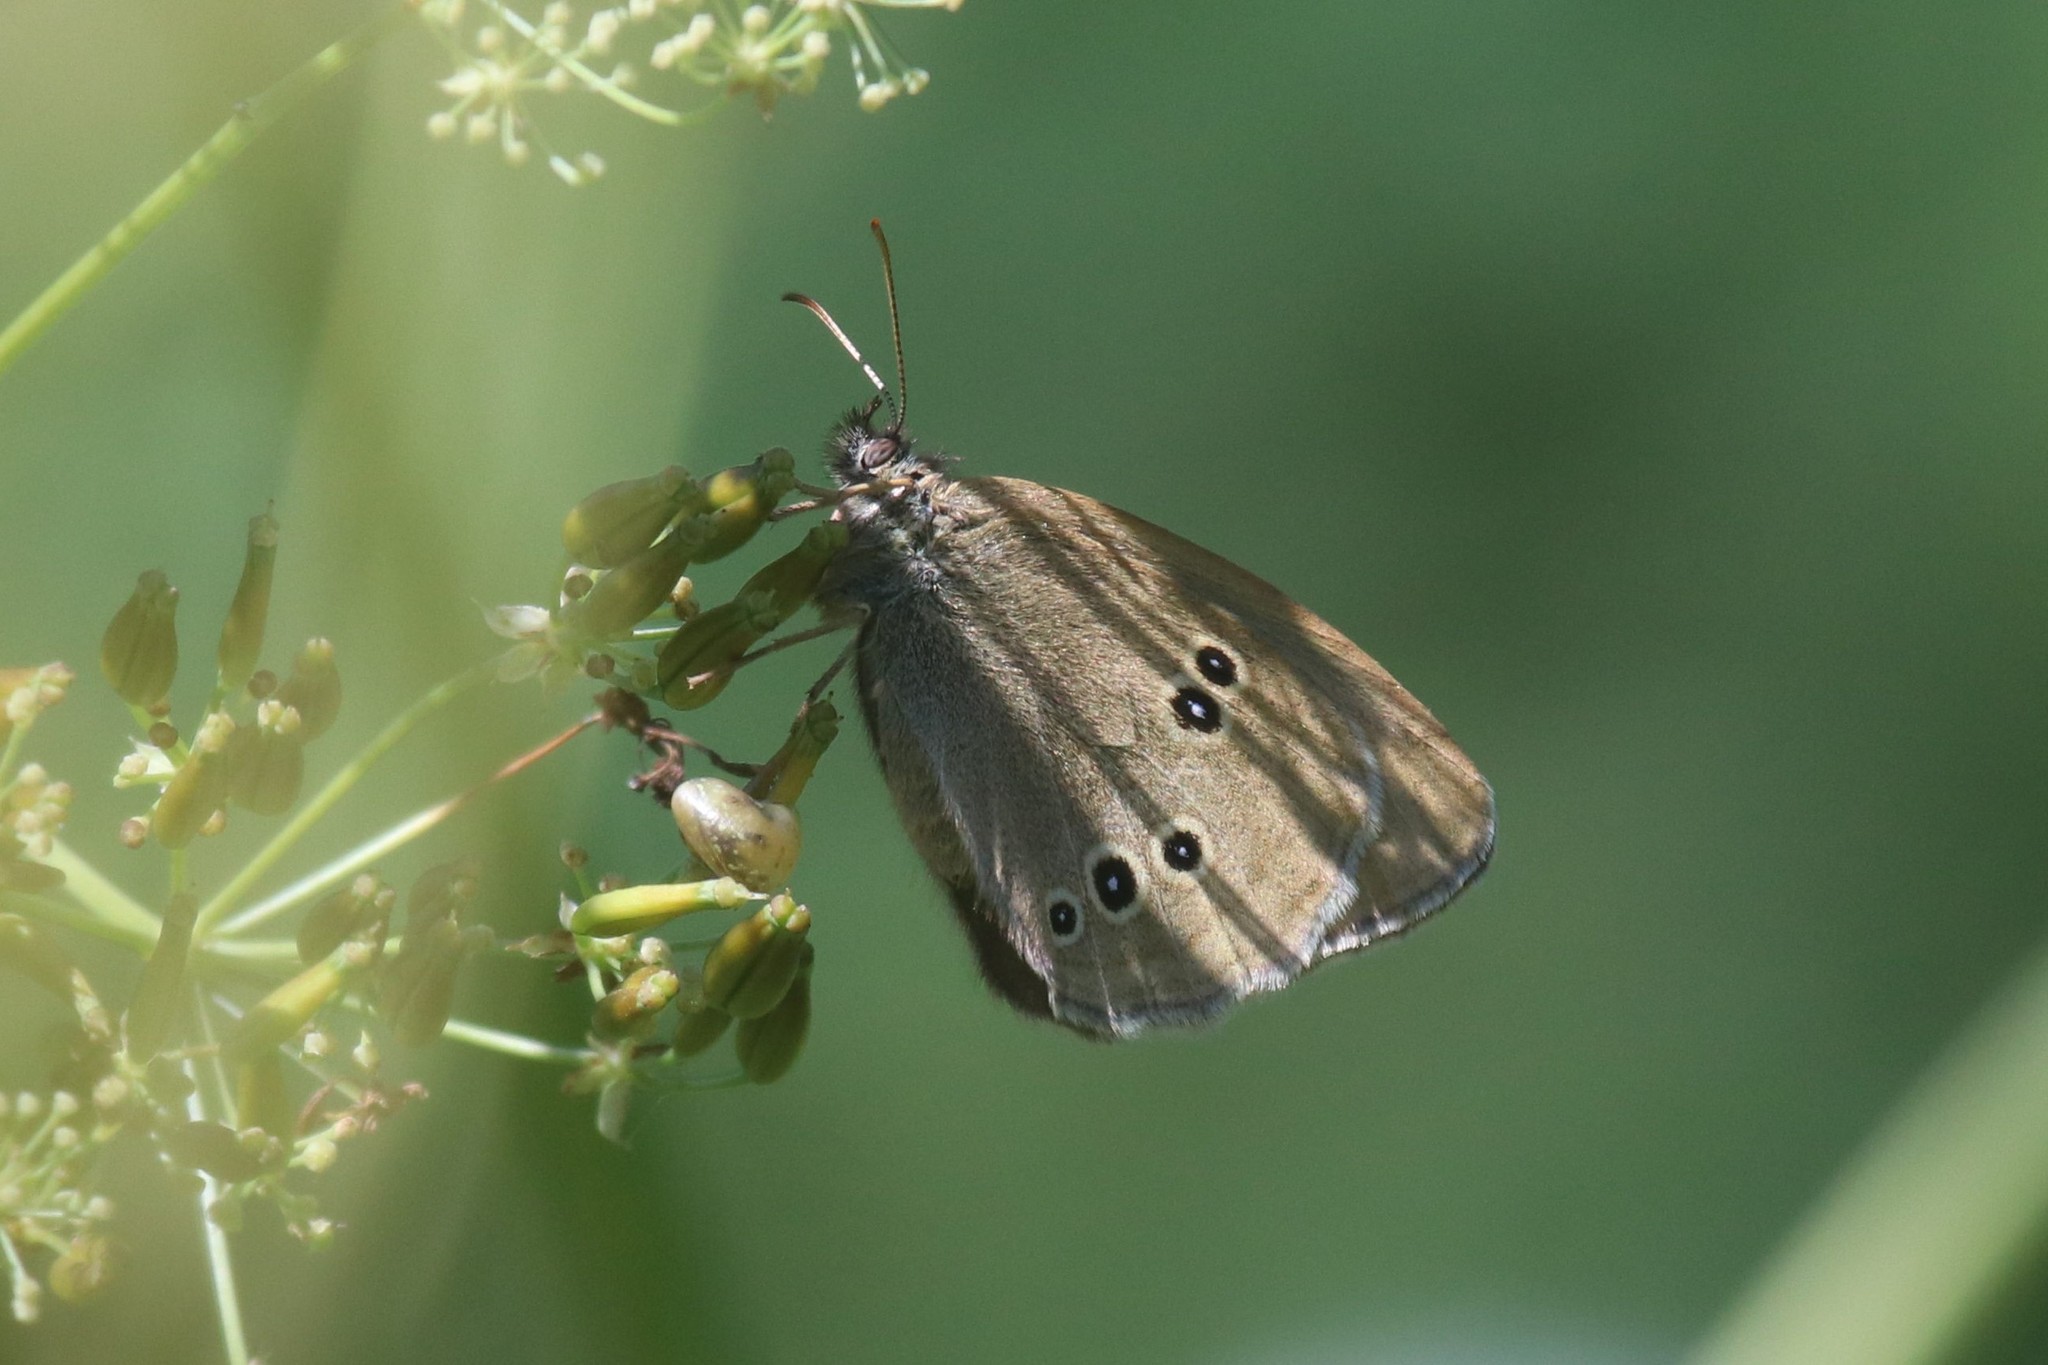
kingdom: Animalia
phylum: Arthropoda
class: Insecta
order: Lepidoptera
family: Nymphalidae
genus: Aphantopus
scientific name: Aphantopus hyperantus
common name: Ringlet
